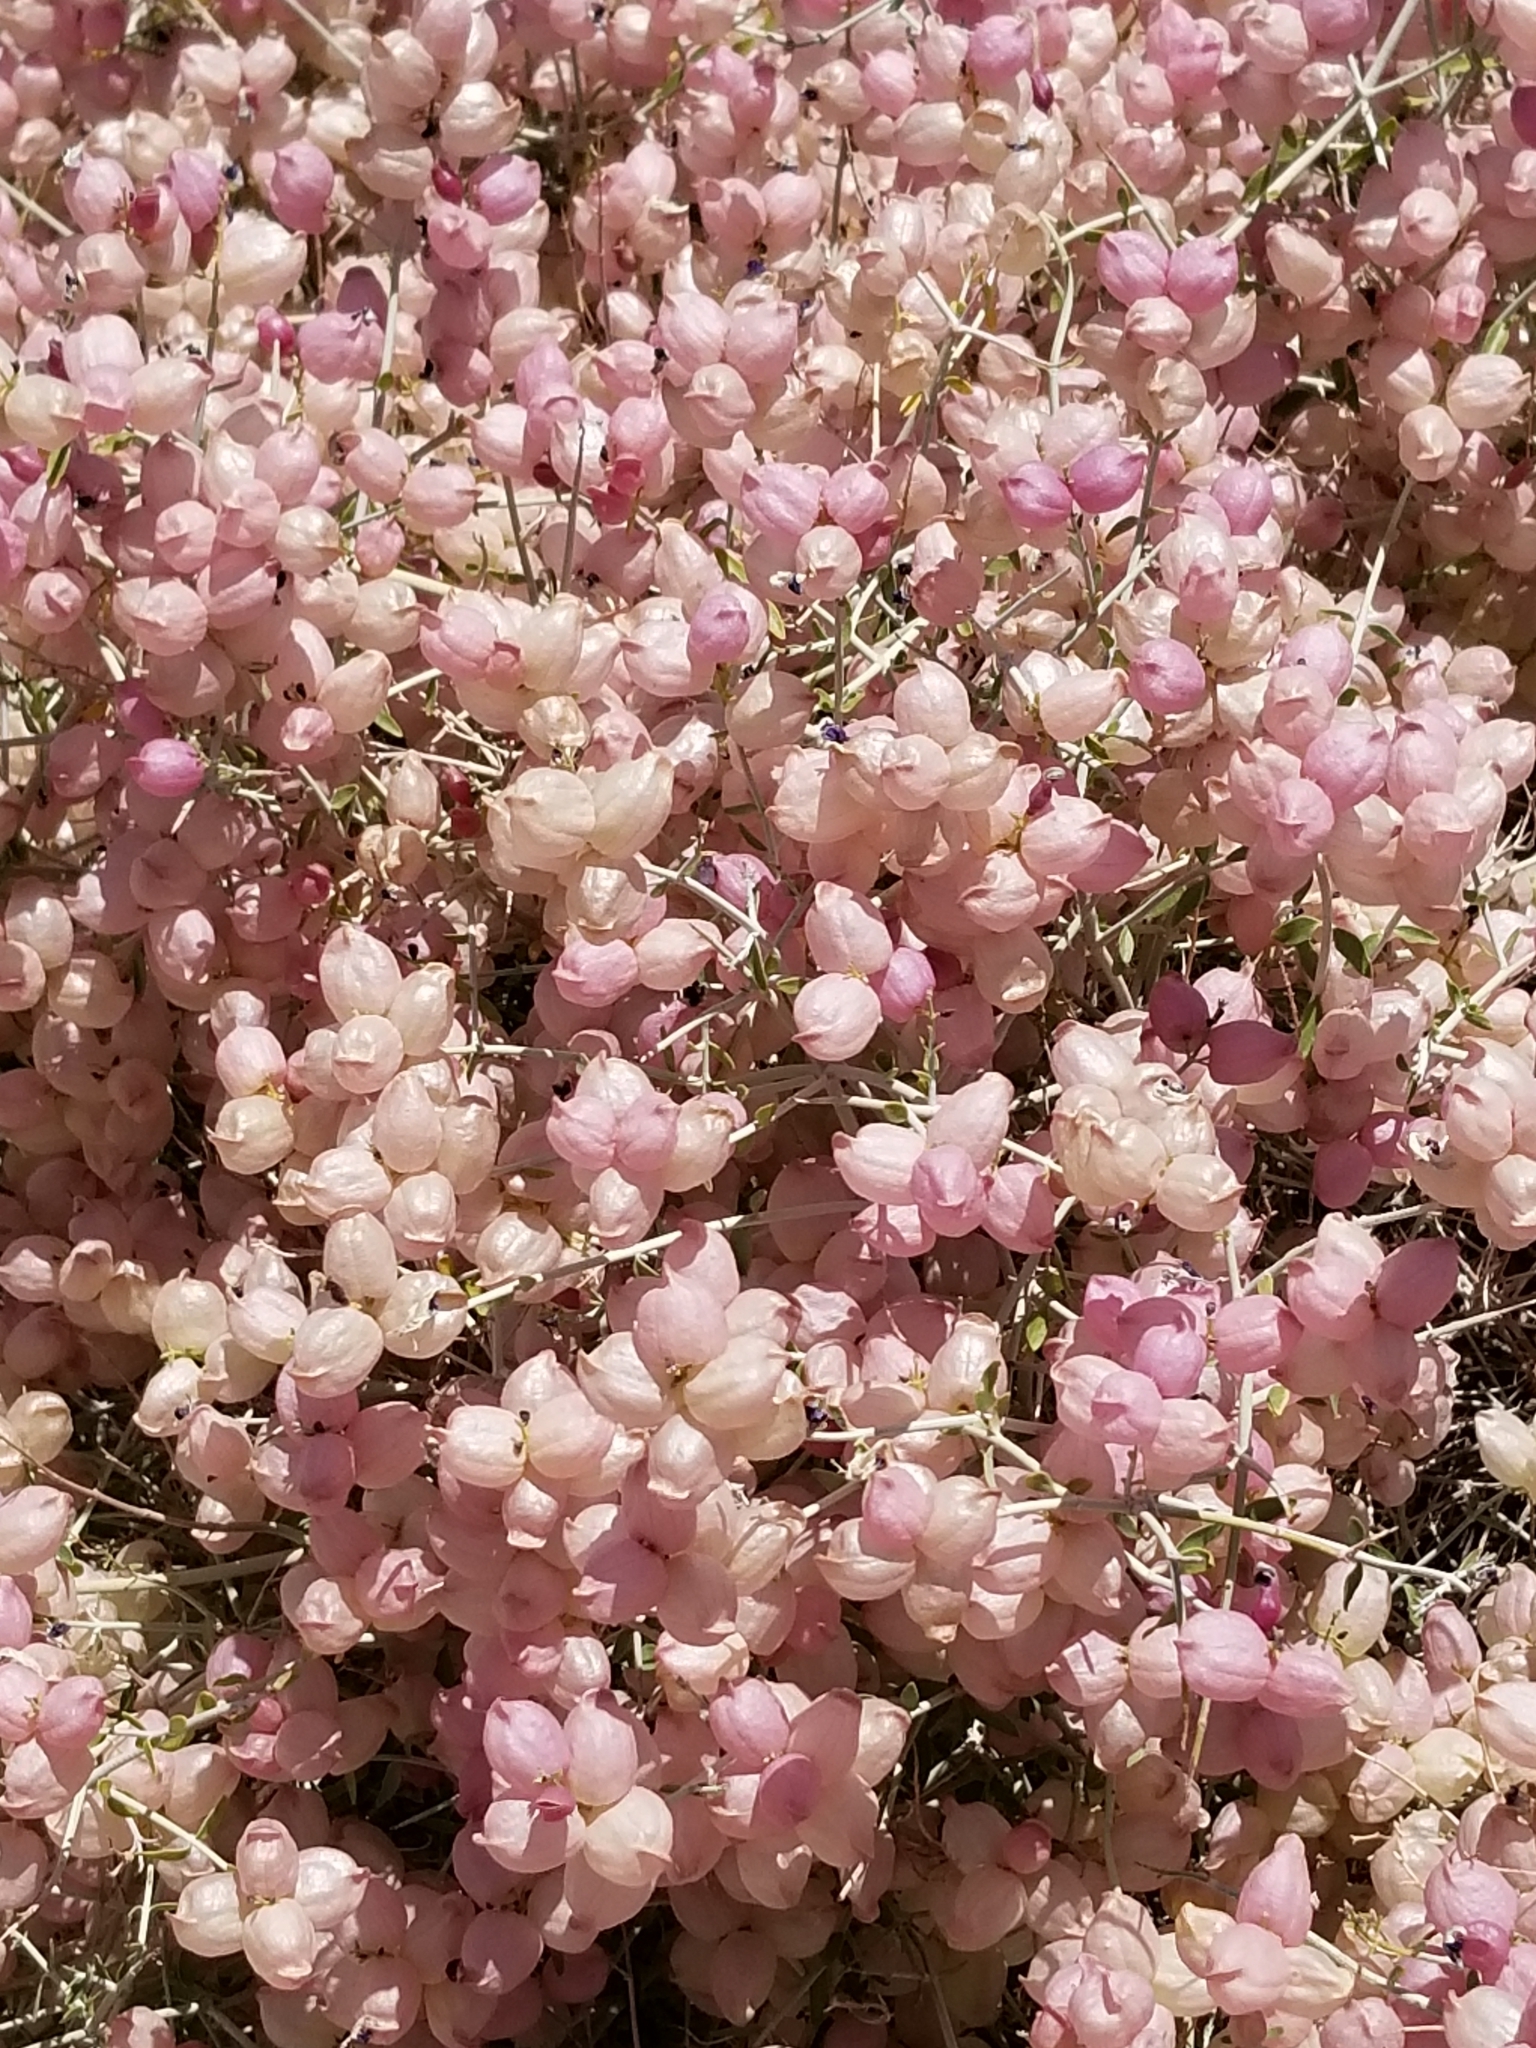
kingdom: Plantae
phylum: Tracheophyta
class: Magnoliopsida
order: Lamiales
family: Lamiaceae
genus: Scutellaria
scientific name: Scutellaria mexicana
